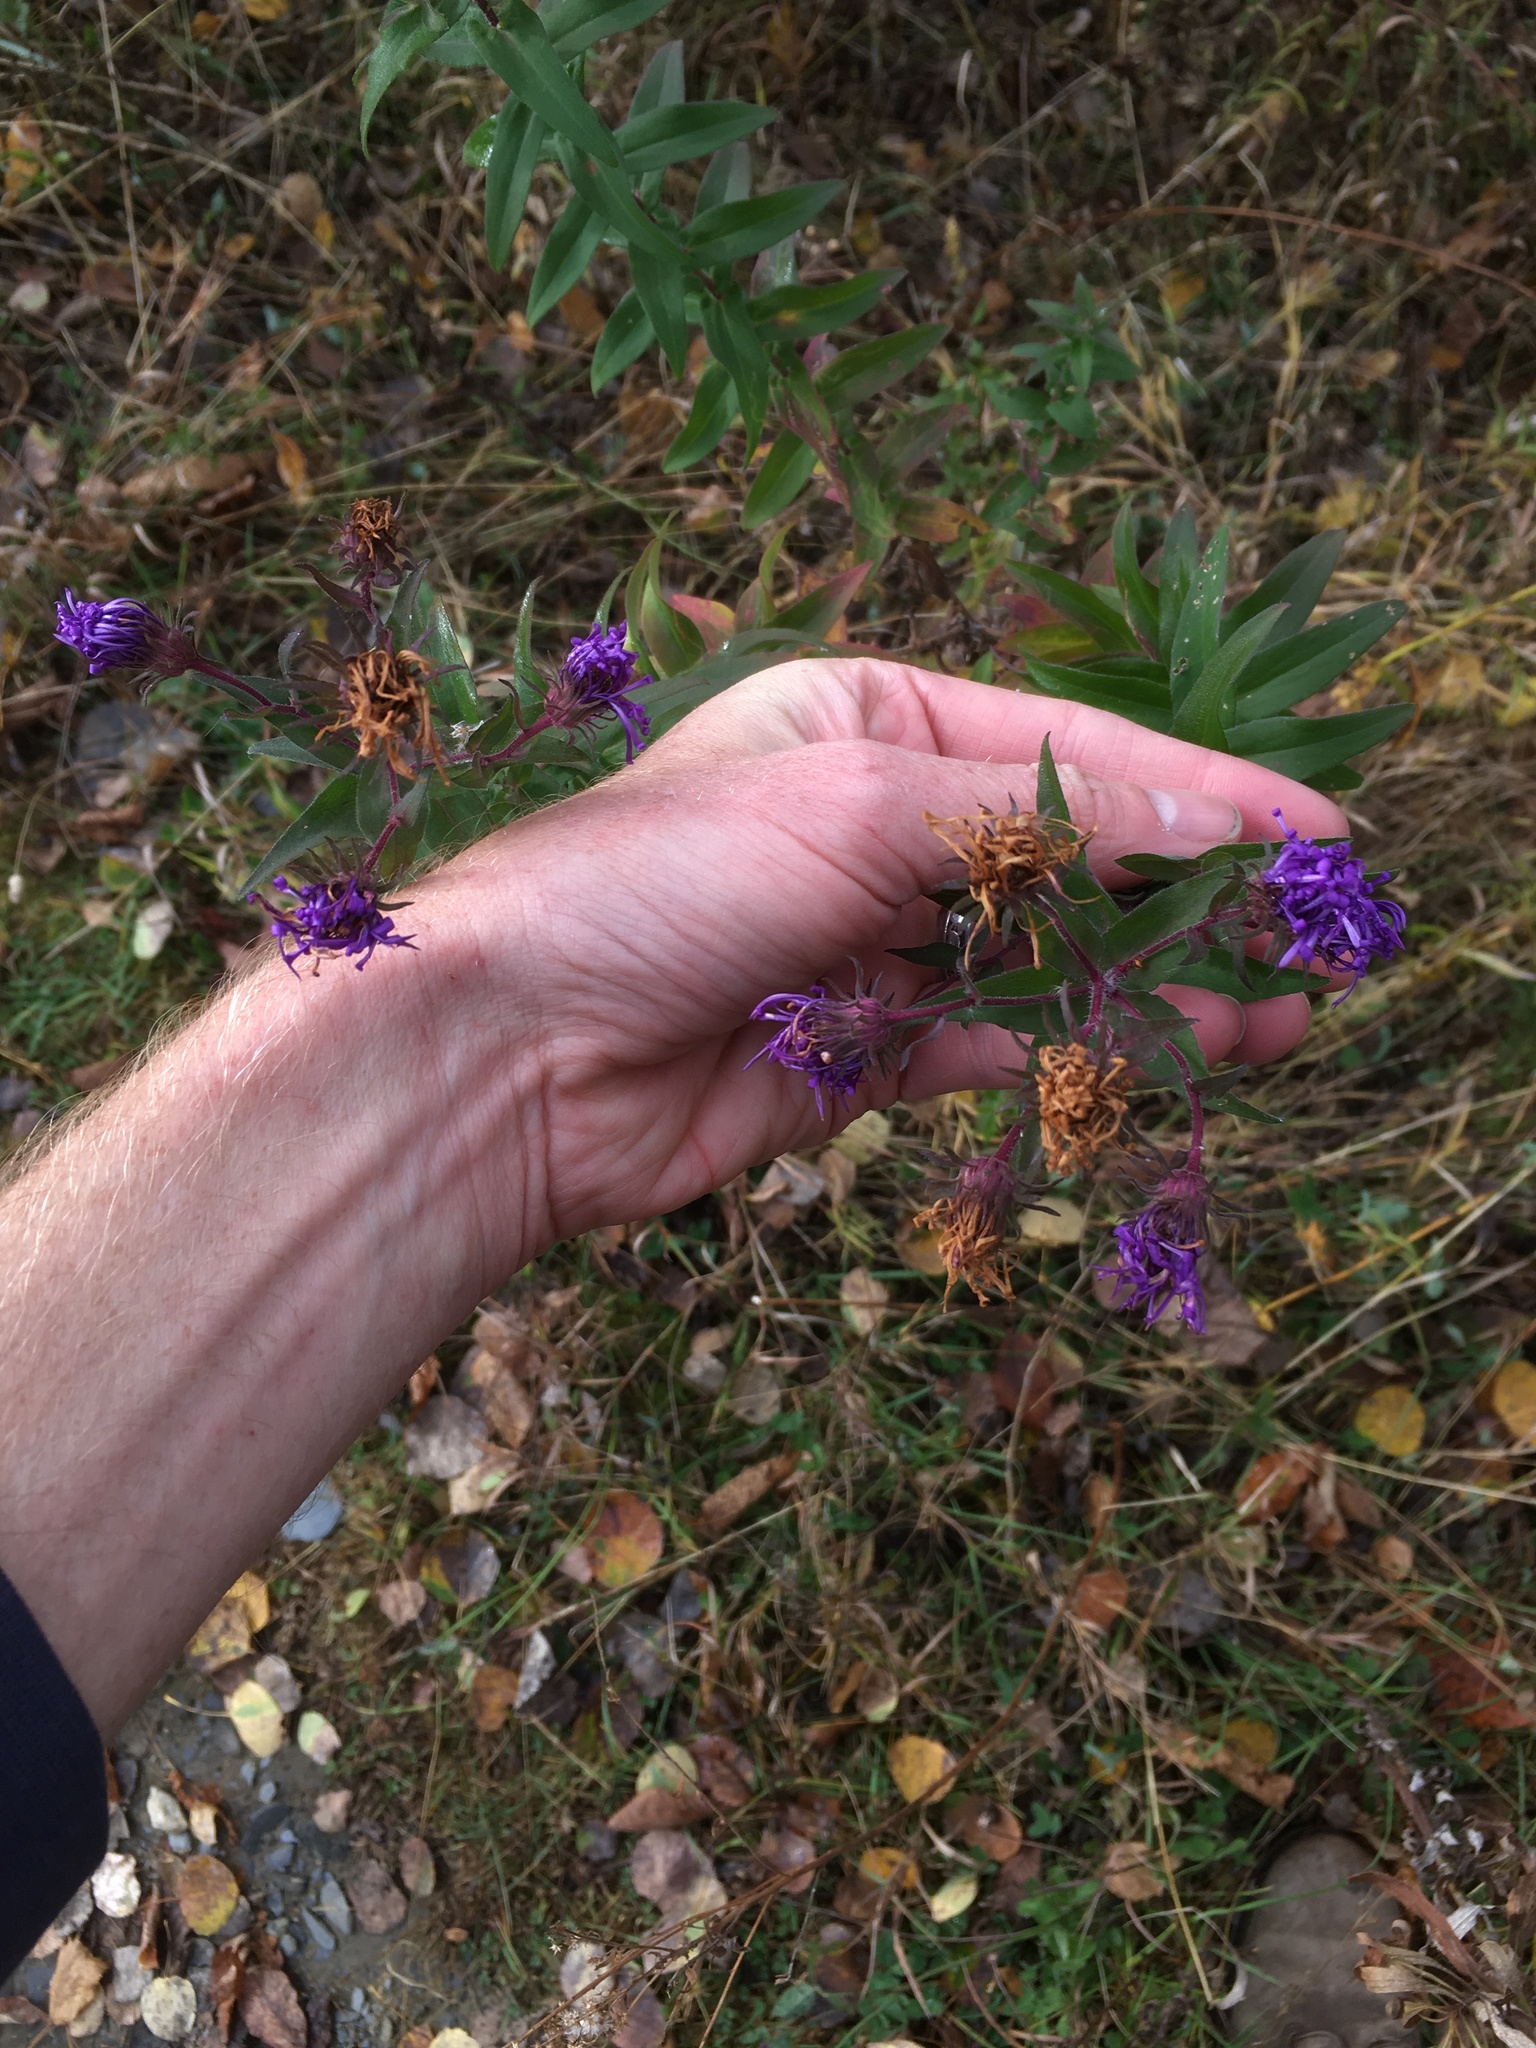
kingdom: Plantae
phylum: Tracheophyta
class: Magnoliopsida
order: Asterales
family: Asteraceae
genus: Symphyotrichum
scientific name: Symphyotrichum novae-angliae
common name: Michaelmas daisy
